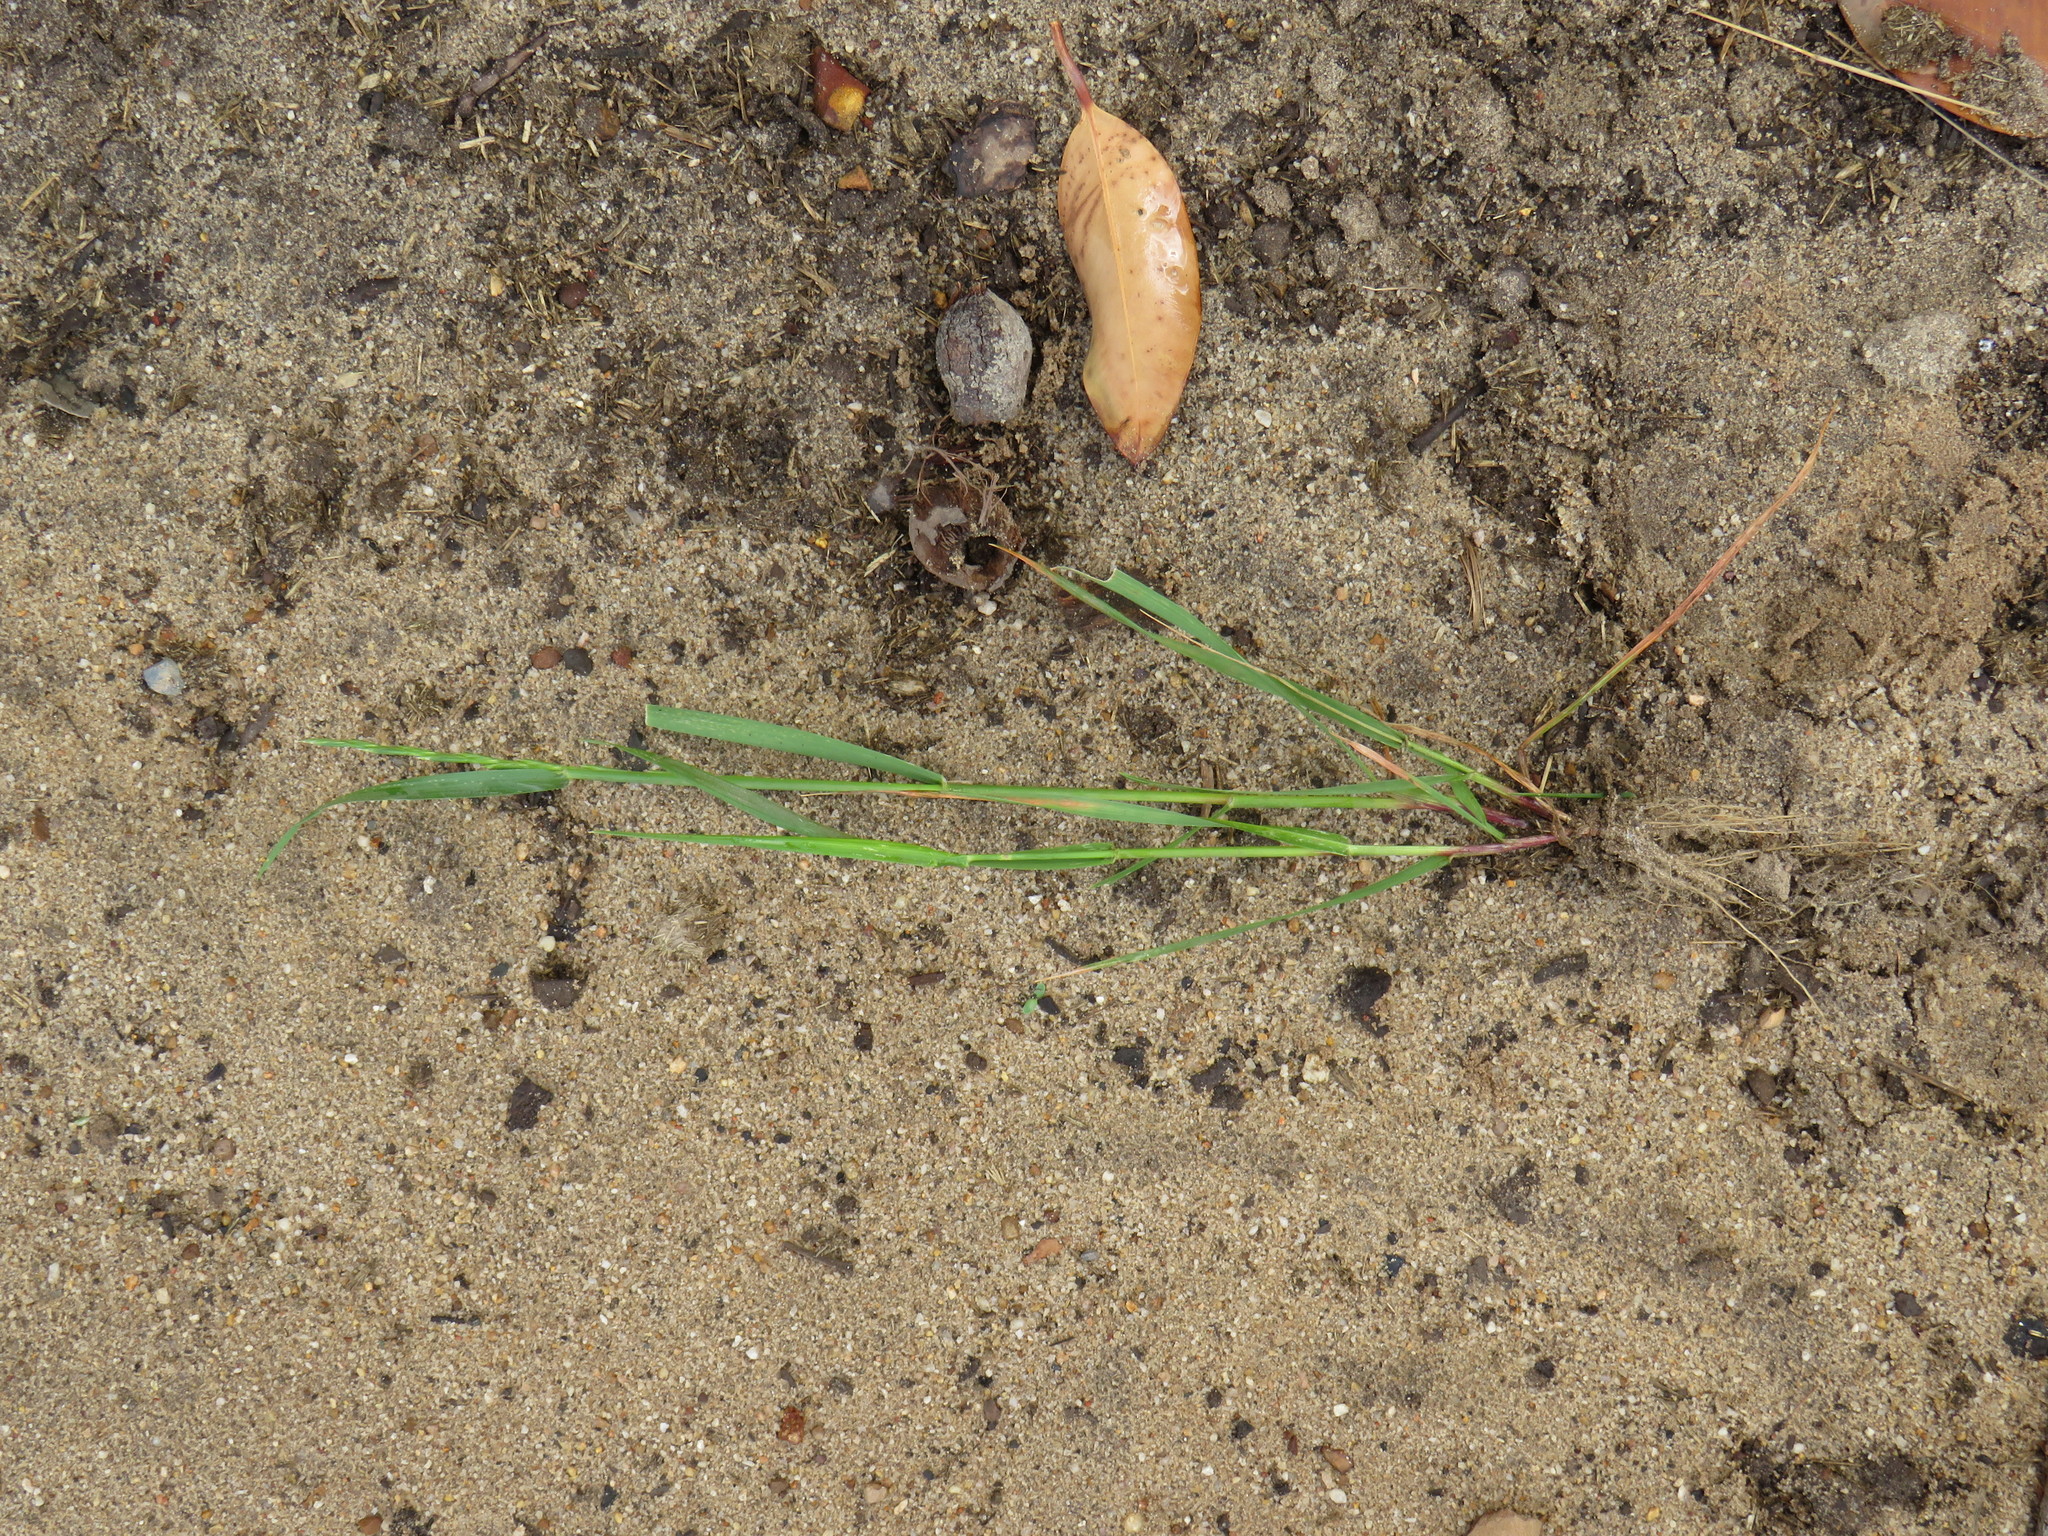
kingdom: Plantae
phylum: Tracheophyta
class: Liliopsida
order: Poales
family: Poaceae
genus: Lolium
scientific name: Lolium perenne
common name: Perennial ryegrass
